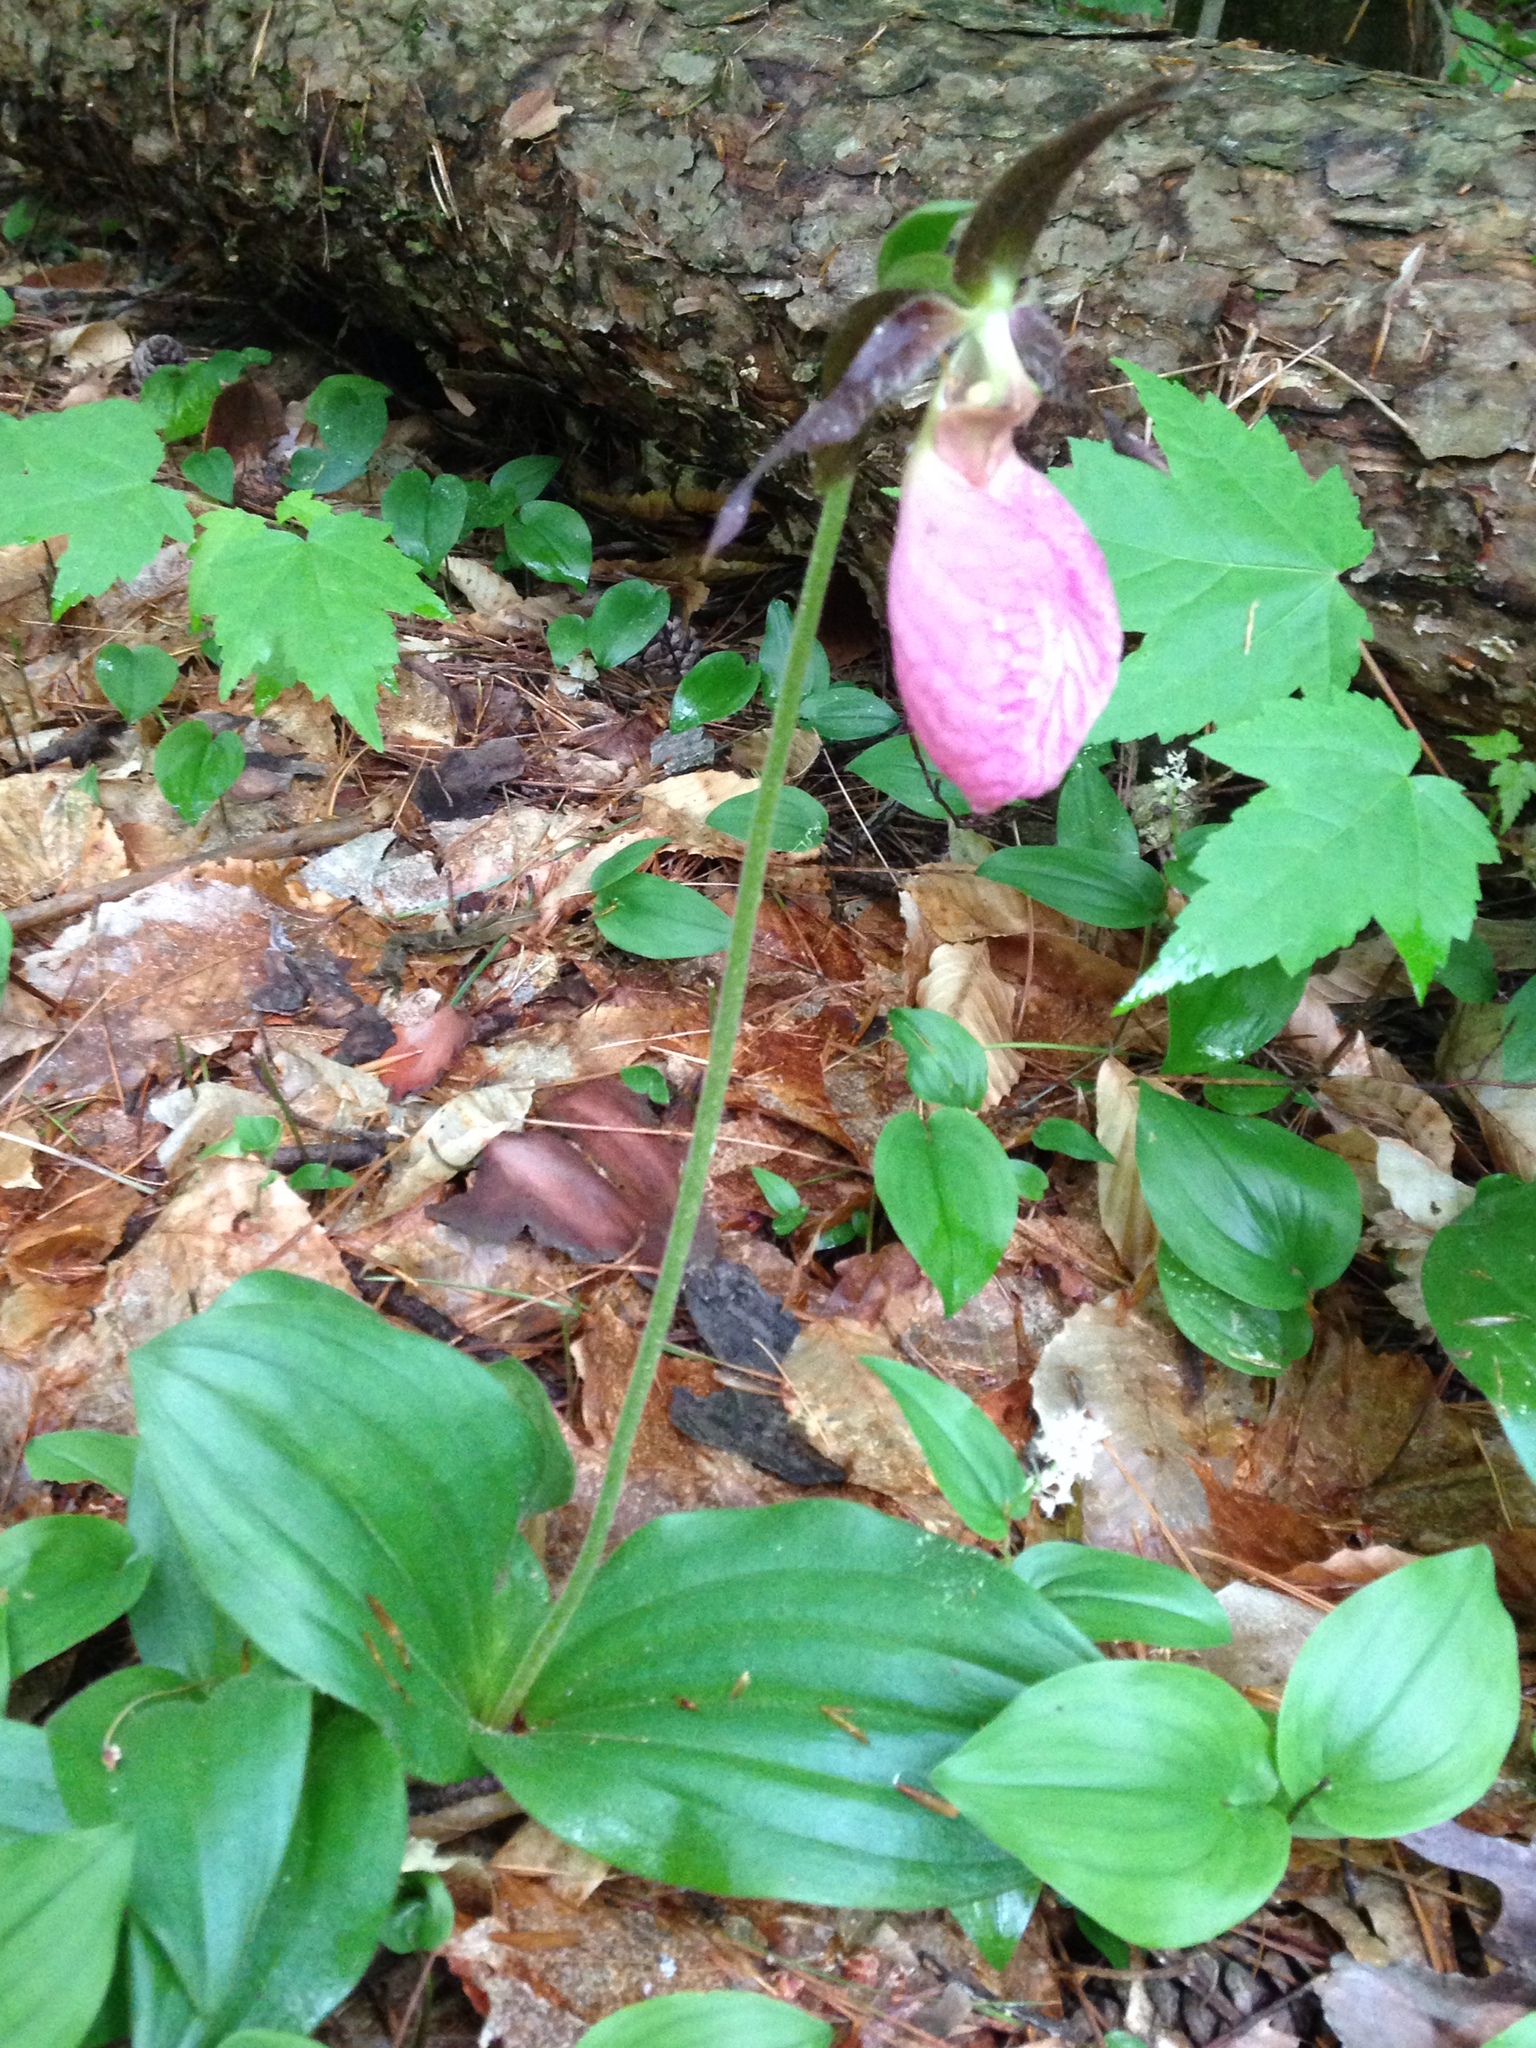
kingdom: Plantae
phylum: Tracheophyta
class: Liliopsida
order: Asparagales
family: Orchidaceae
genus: Cypripedium
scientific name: Cypripedium acaule
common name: Pink lady's-slipper
